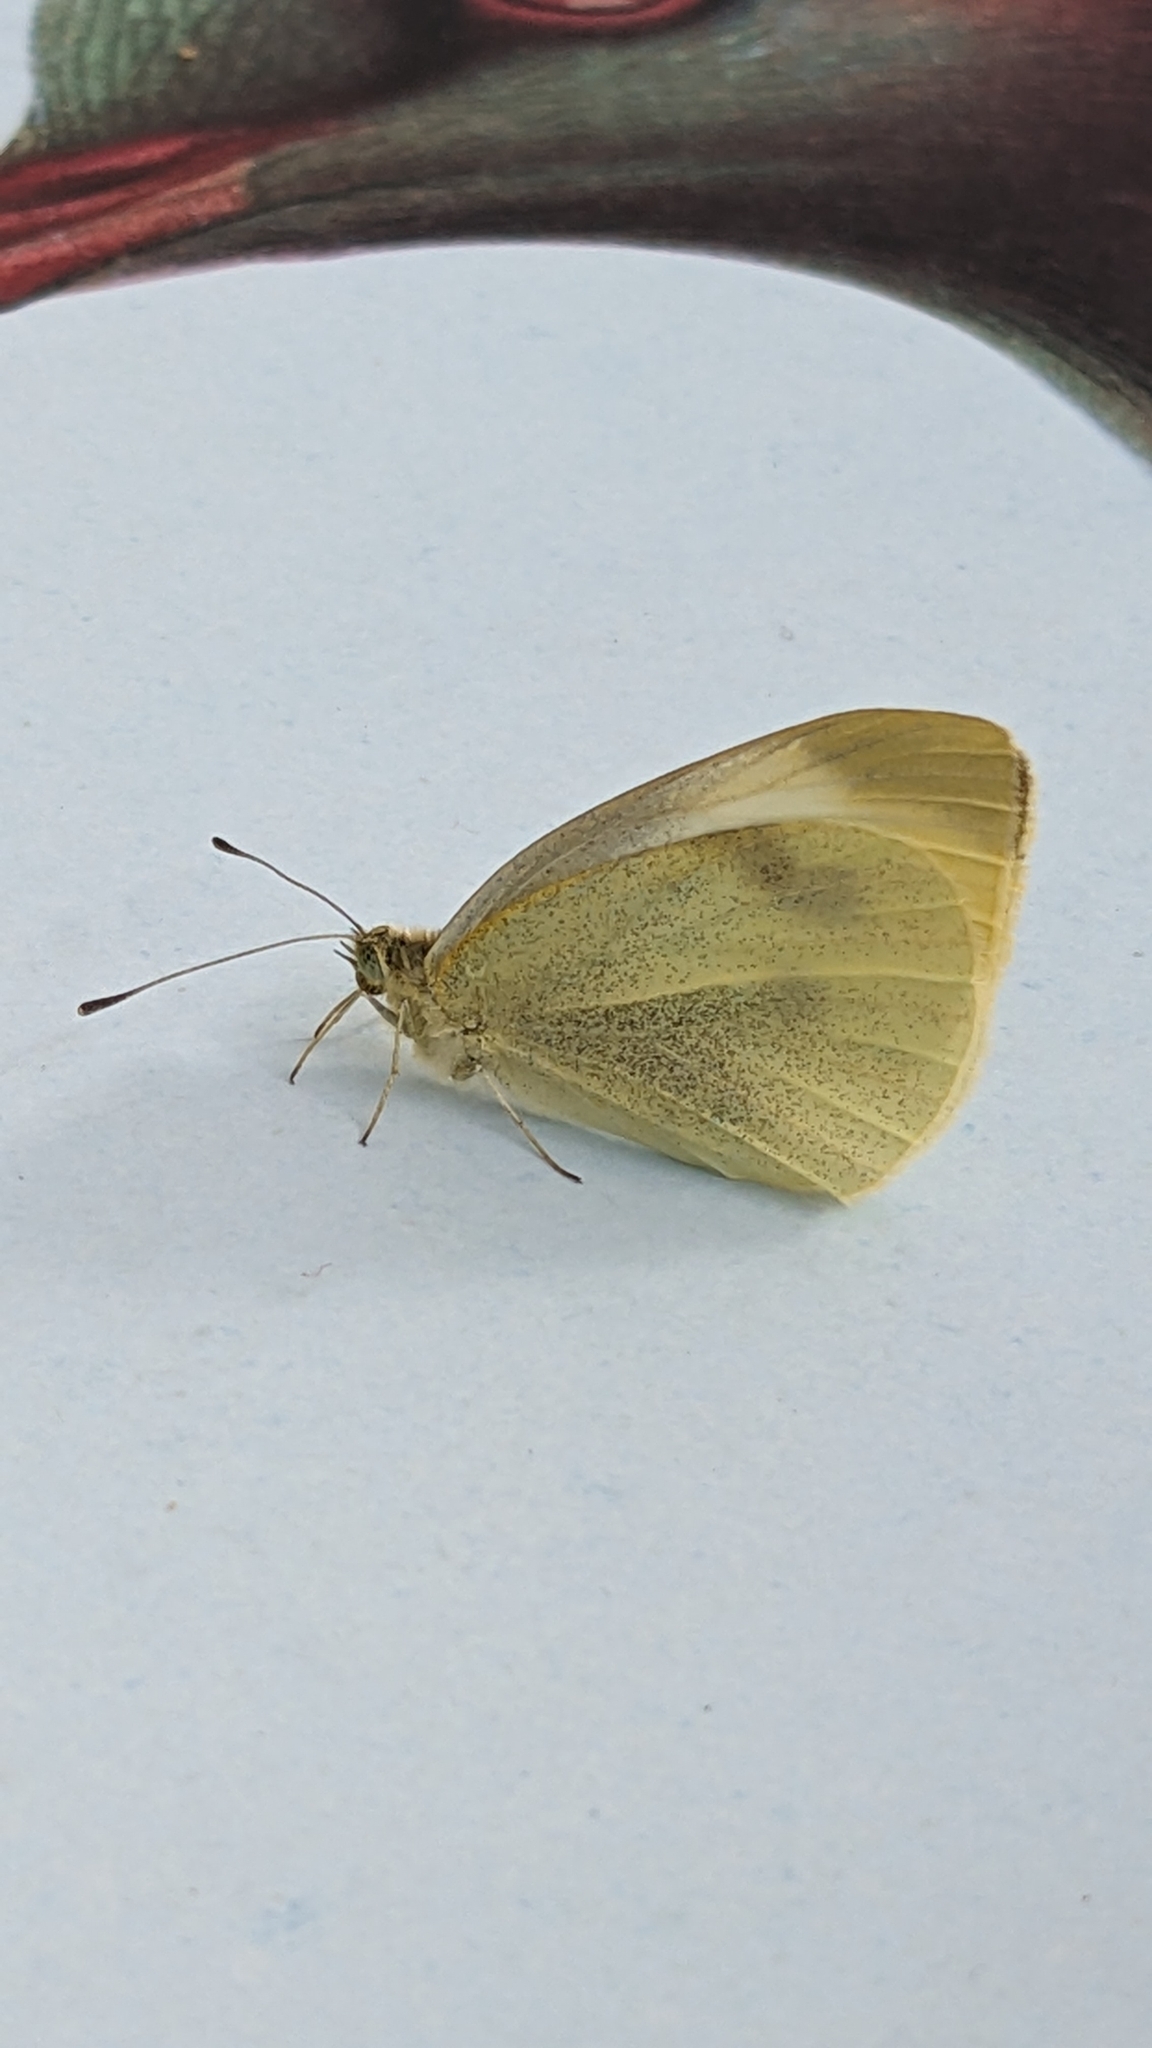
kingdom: Animalia
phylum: Arthropoda
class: Insecta
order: Lepidoptera
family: Pieridae
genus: Pieris
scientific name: Pieris rapae
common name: Small white
